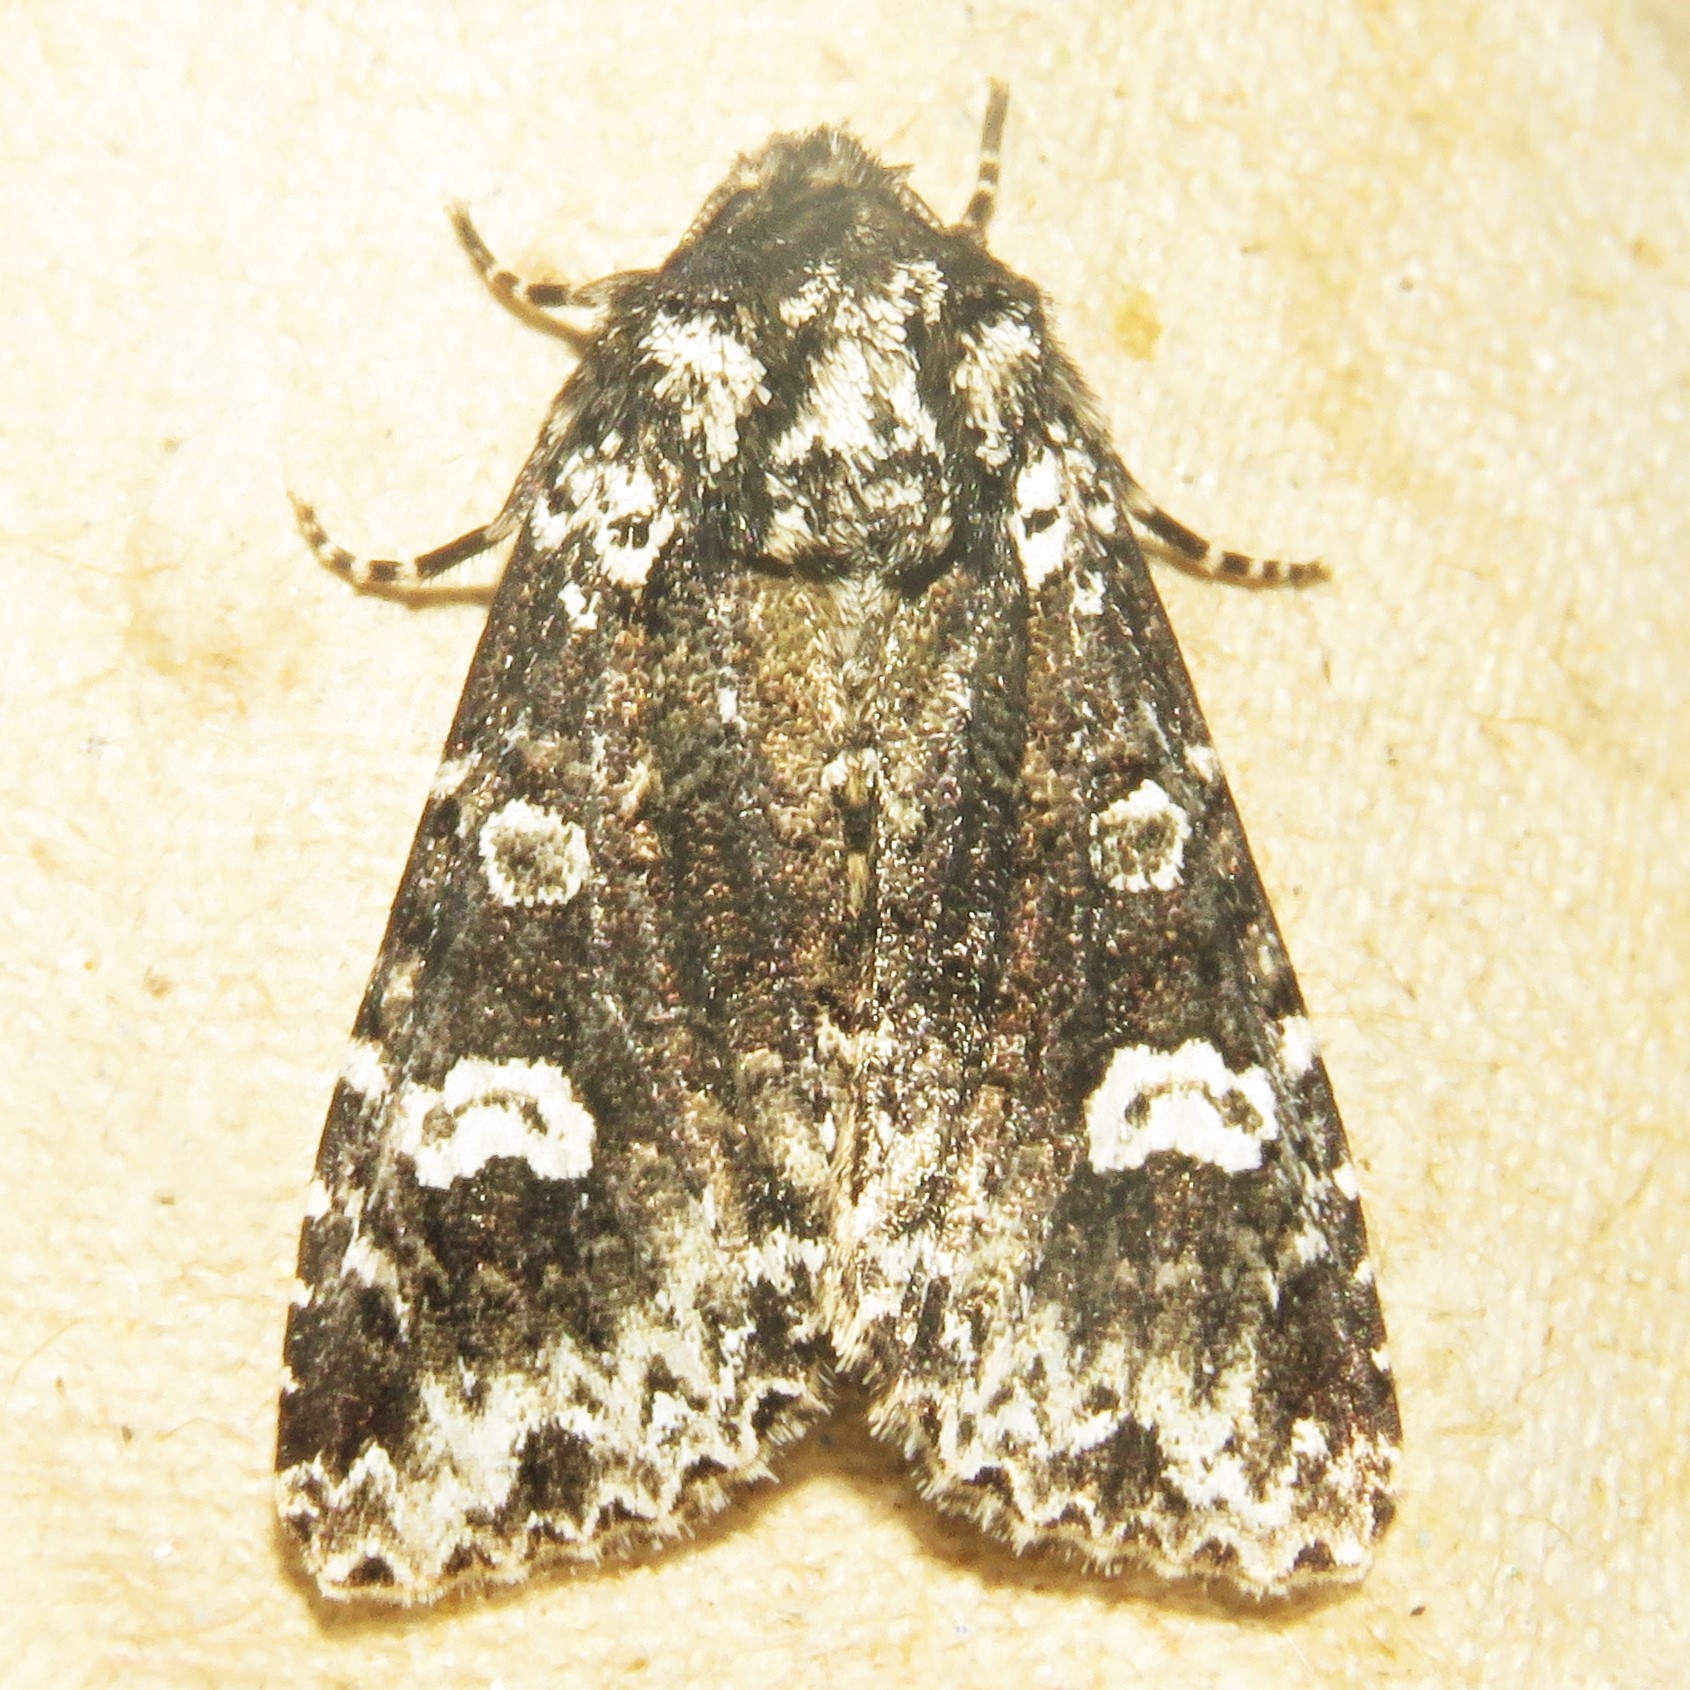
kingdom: Animalia
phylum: Arthropoda
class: Insecta
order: Lepidoptera
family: Noctuidae
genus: Melanchra
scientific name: Melanchra adjuncta
